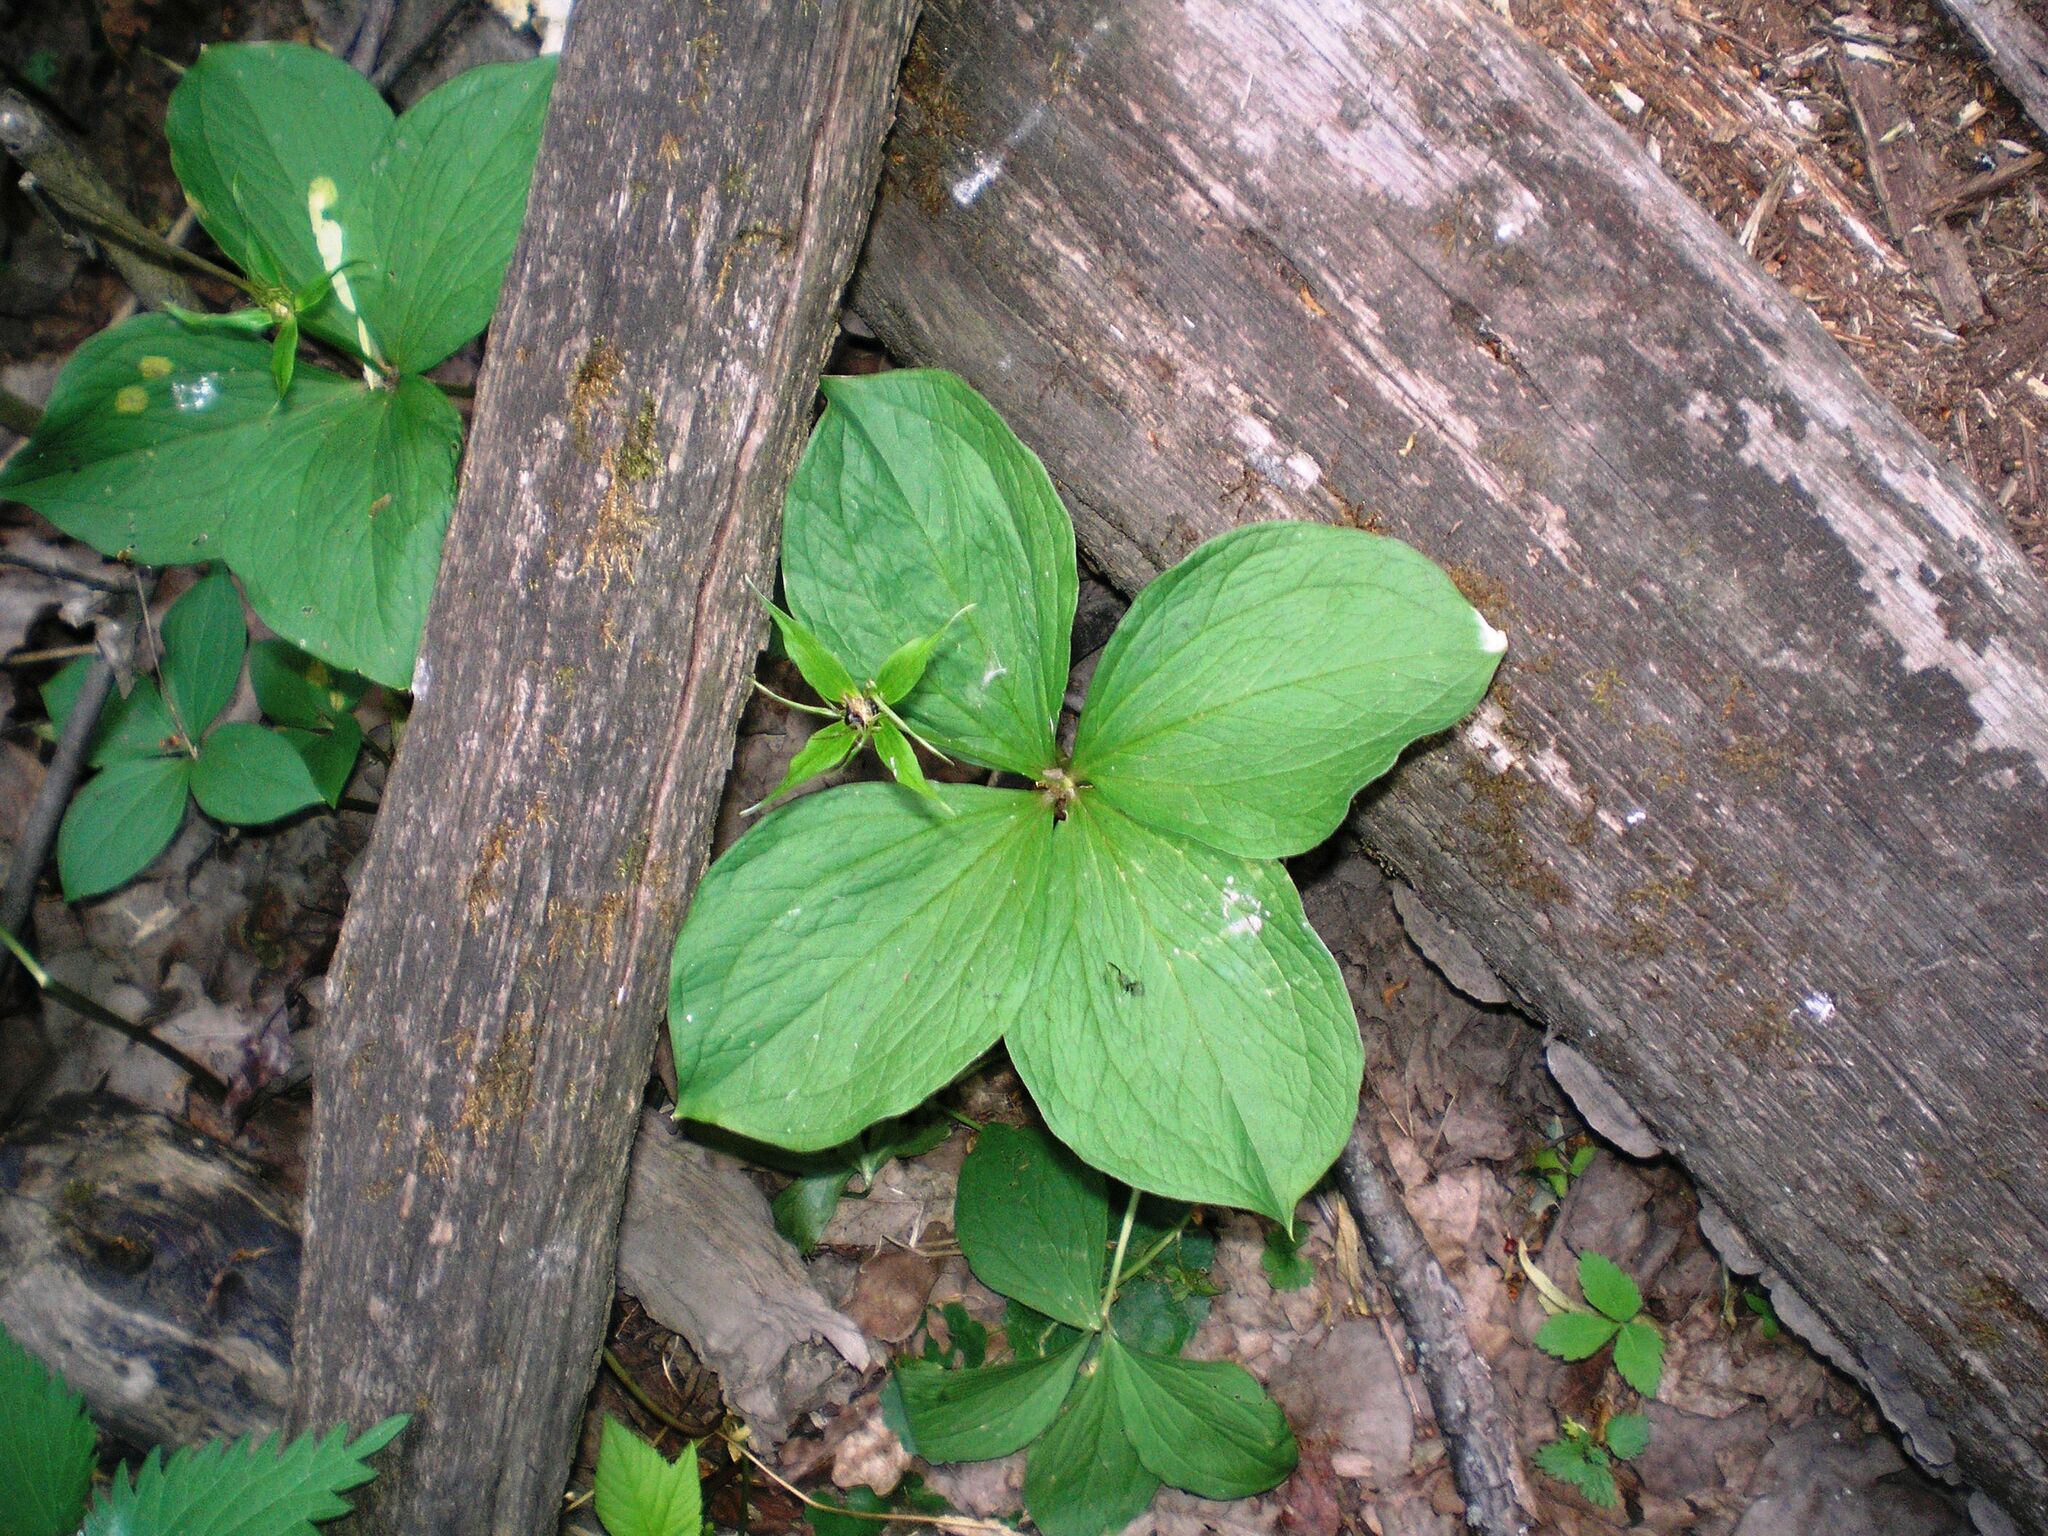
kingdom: Plantae
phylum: Tracheophyta
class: Liliopsida
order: Liliales
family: Melanthiaceae
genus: Paris
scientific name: Paris quadrifolia
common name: Herb-paris
